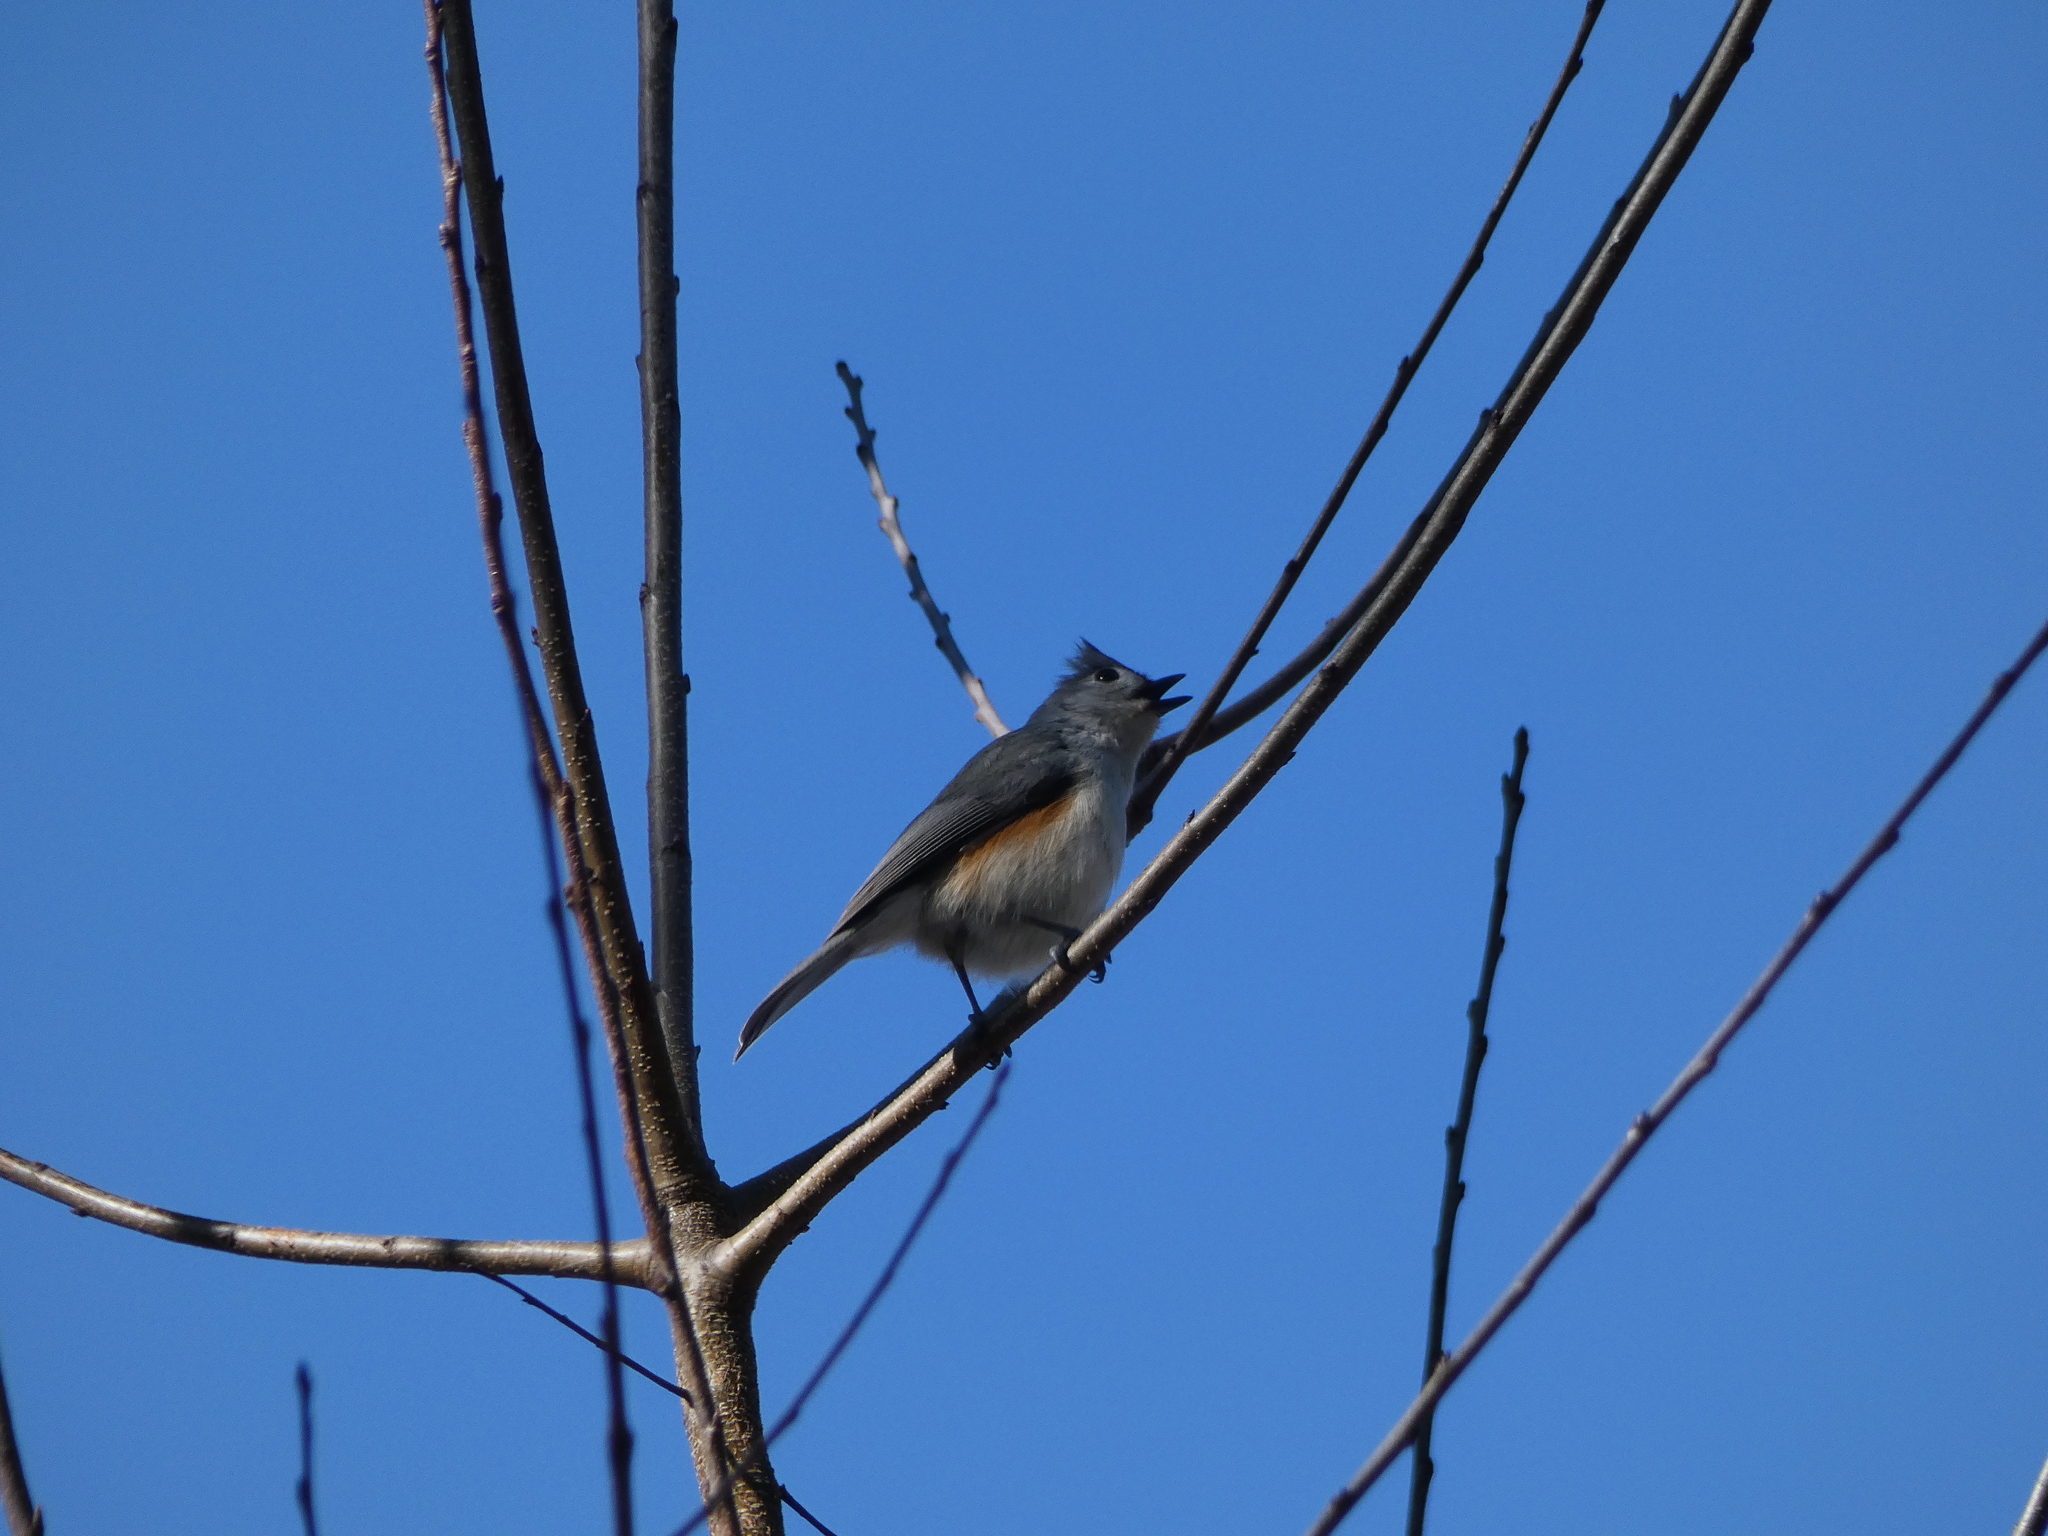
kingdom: Animalia
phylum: Chordata
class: Aves
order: Passeriformes
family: Paridae
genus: Baeolophus
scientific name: Baeolophus bicolor
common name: Tufted titmouse
